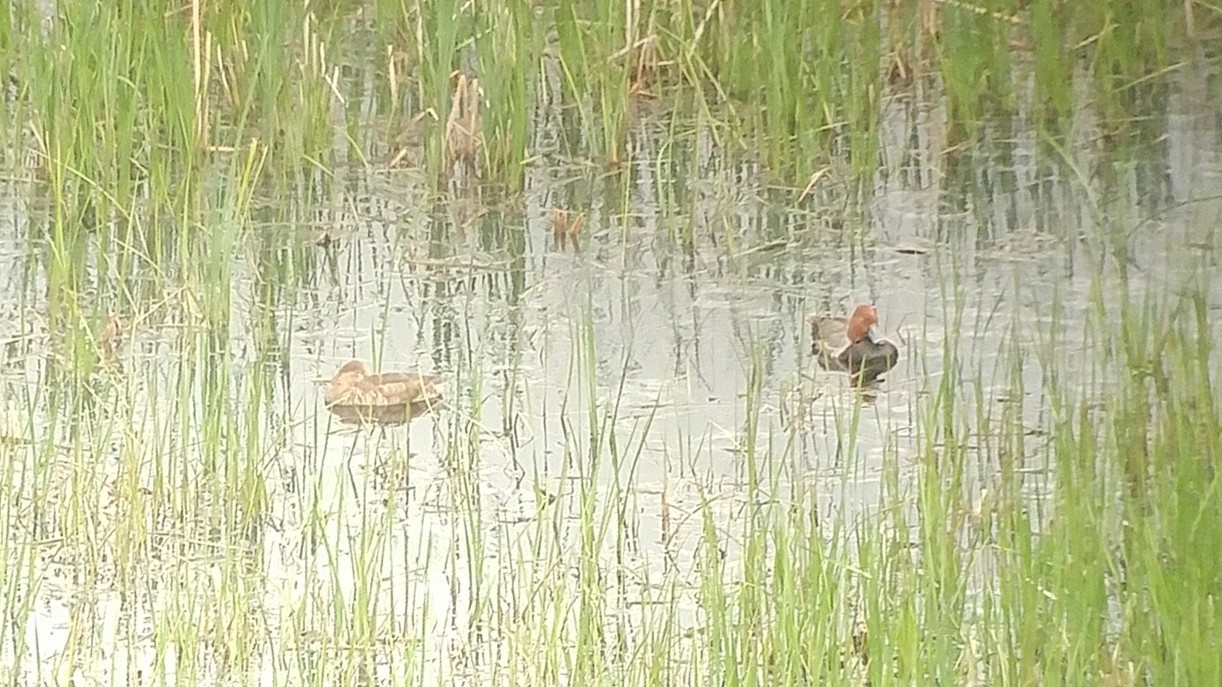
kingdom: Animalia
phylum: Chordata
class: Aves
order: Anseriformes
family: Anatidae
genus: Aythya
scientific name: Aythya americana
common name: Redhead
